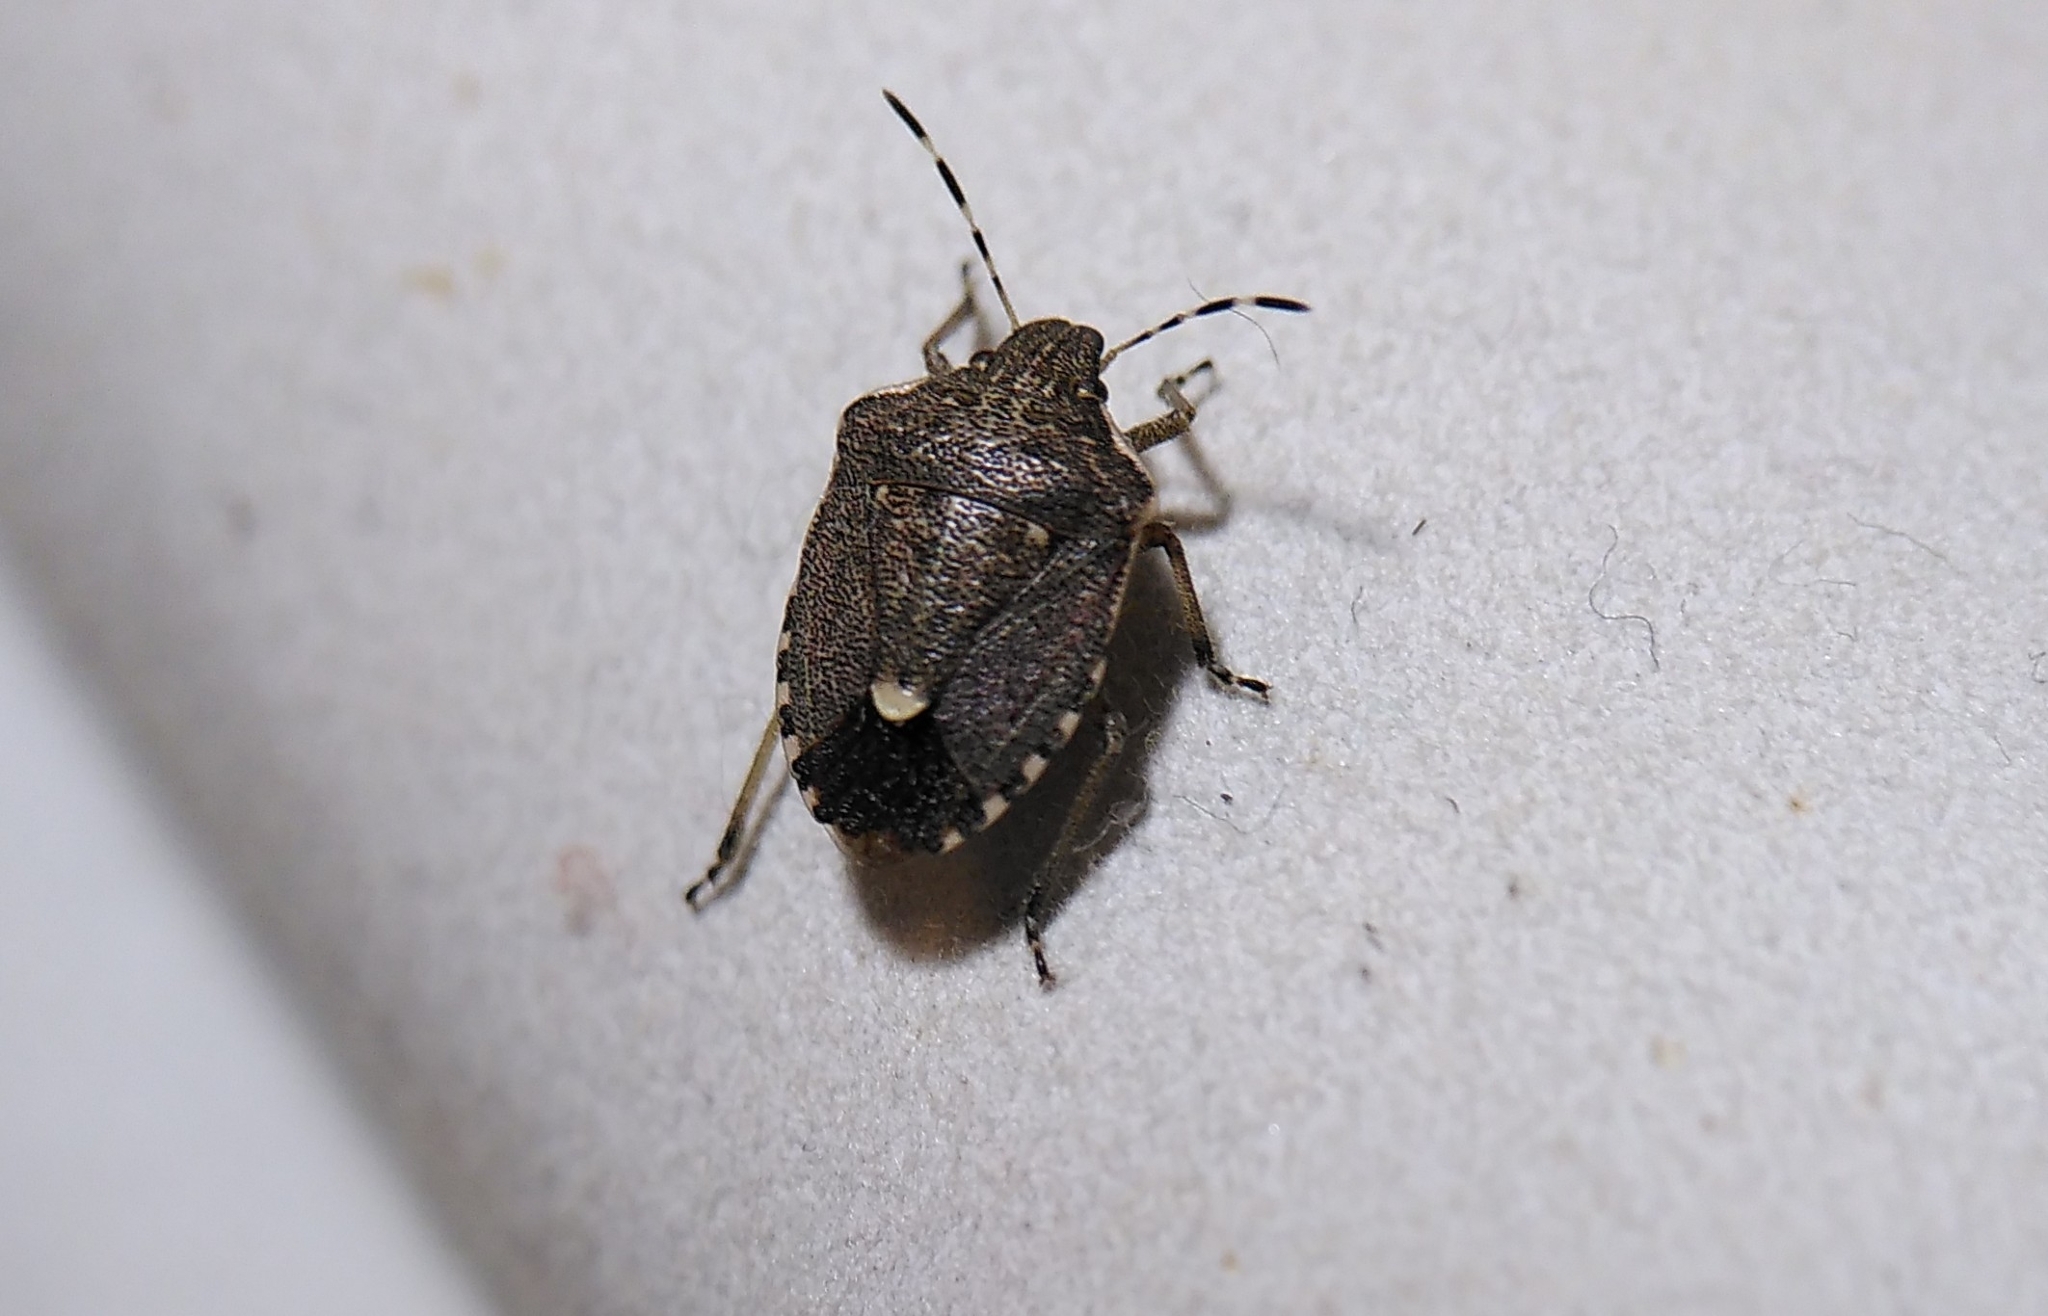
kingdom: Animalia
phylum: Arthropoda
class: Insecta
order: Hemiptera
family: Pentatomidae
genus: Holcostethus
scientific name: Holcostethus albipes
